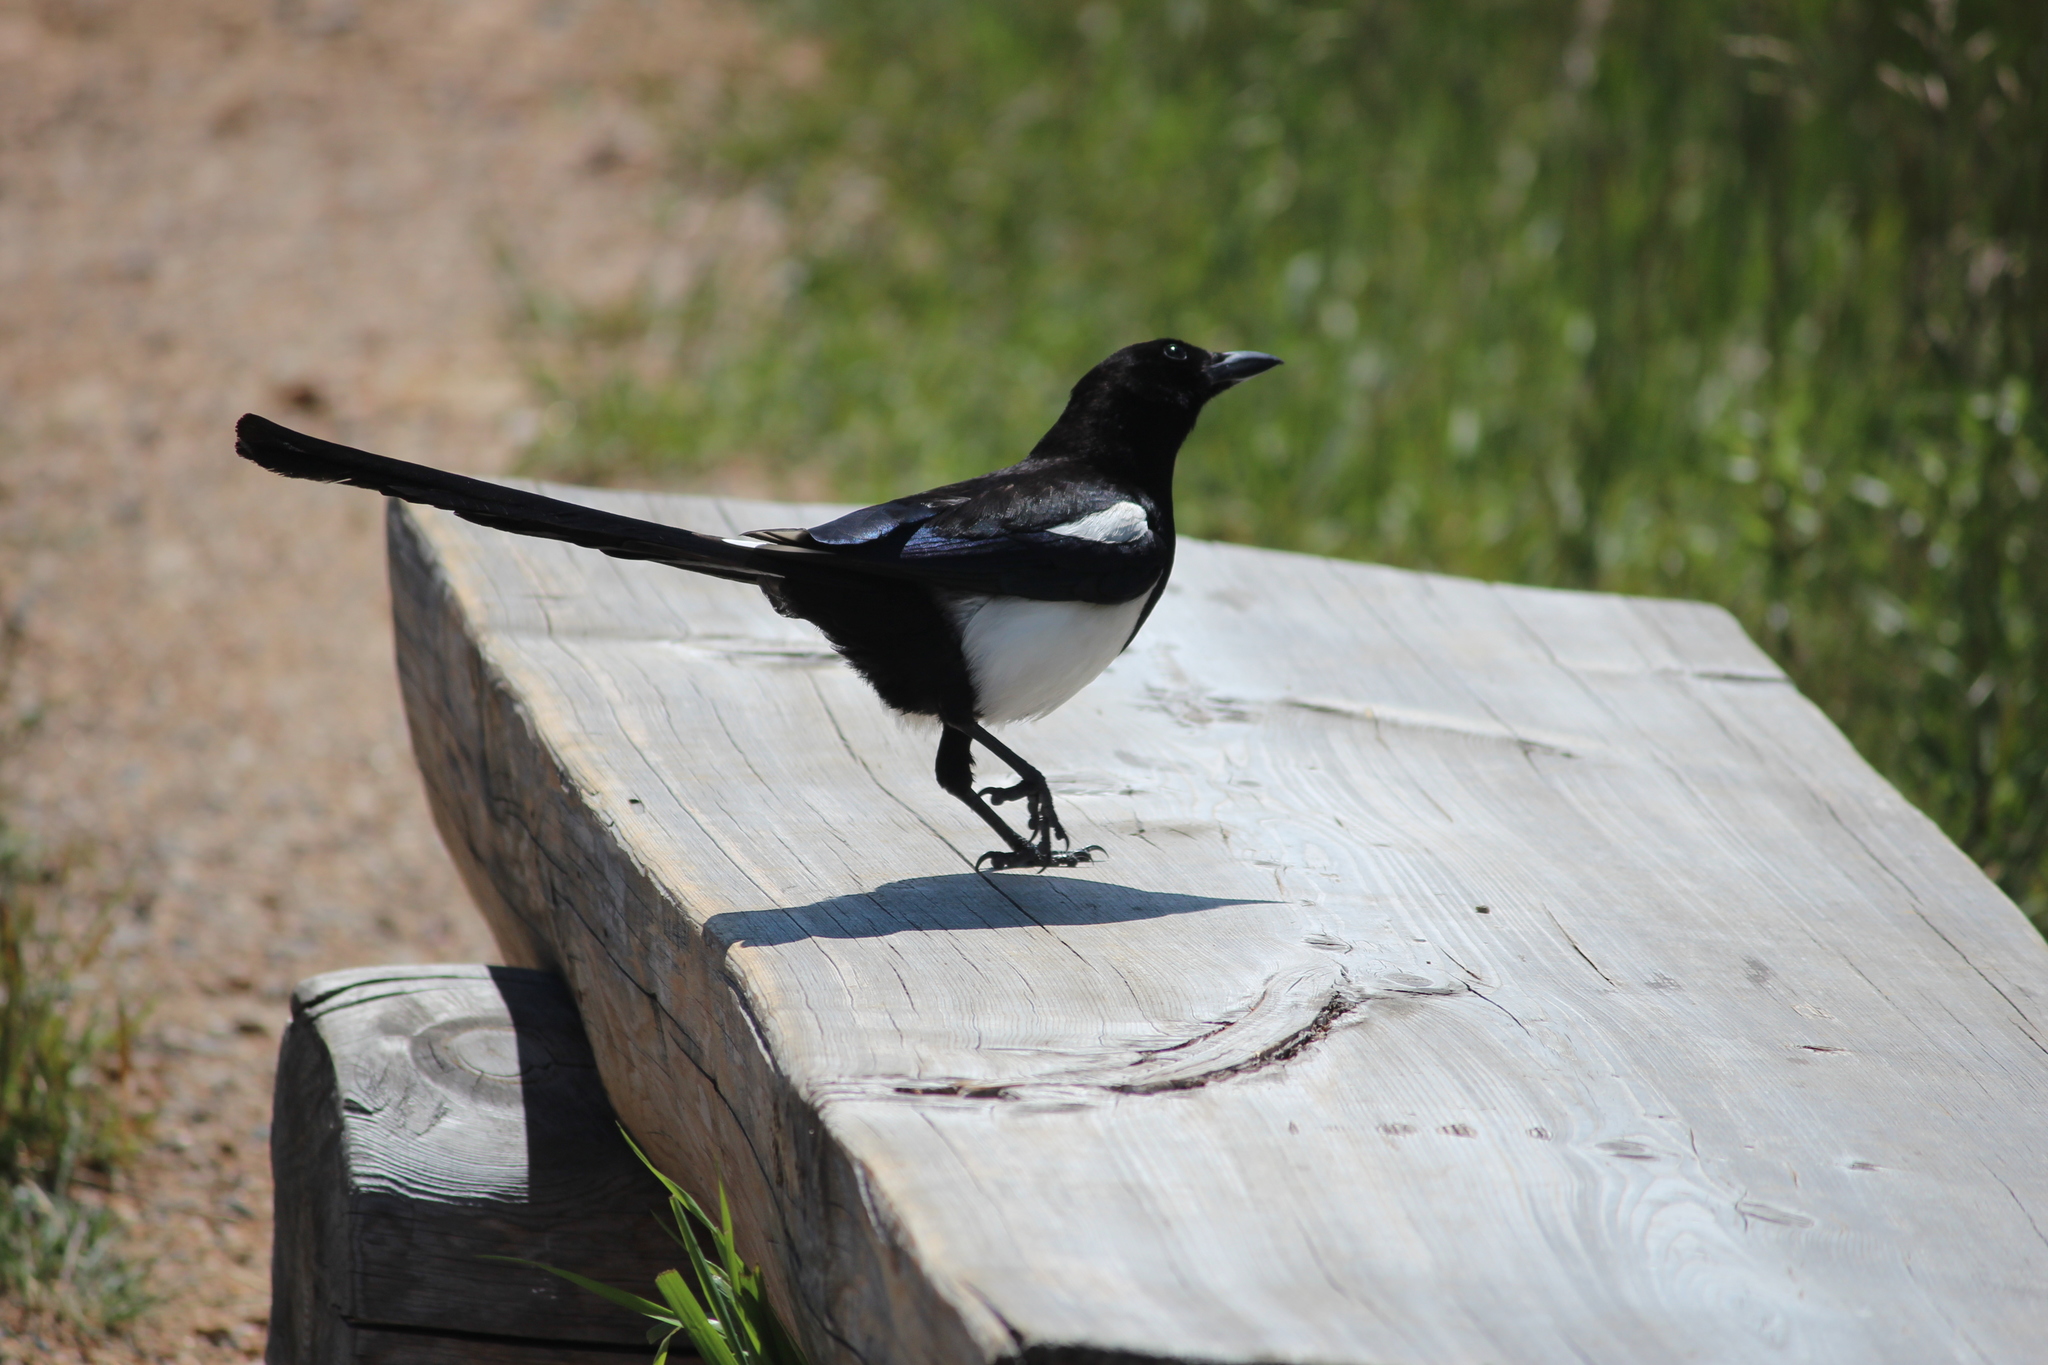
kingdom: Animalia
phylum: Chordata
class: Aves
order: Passeriformes
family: Corvidae
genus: Pica
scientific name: Pica hudsonia
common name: Black-billed magpie
